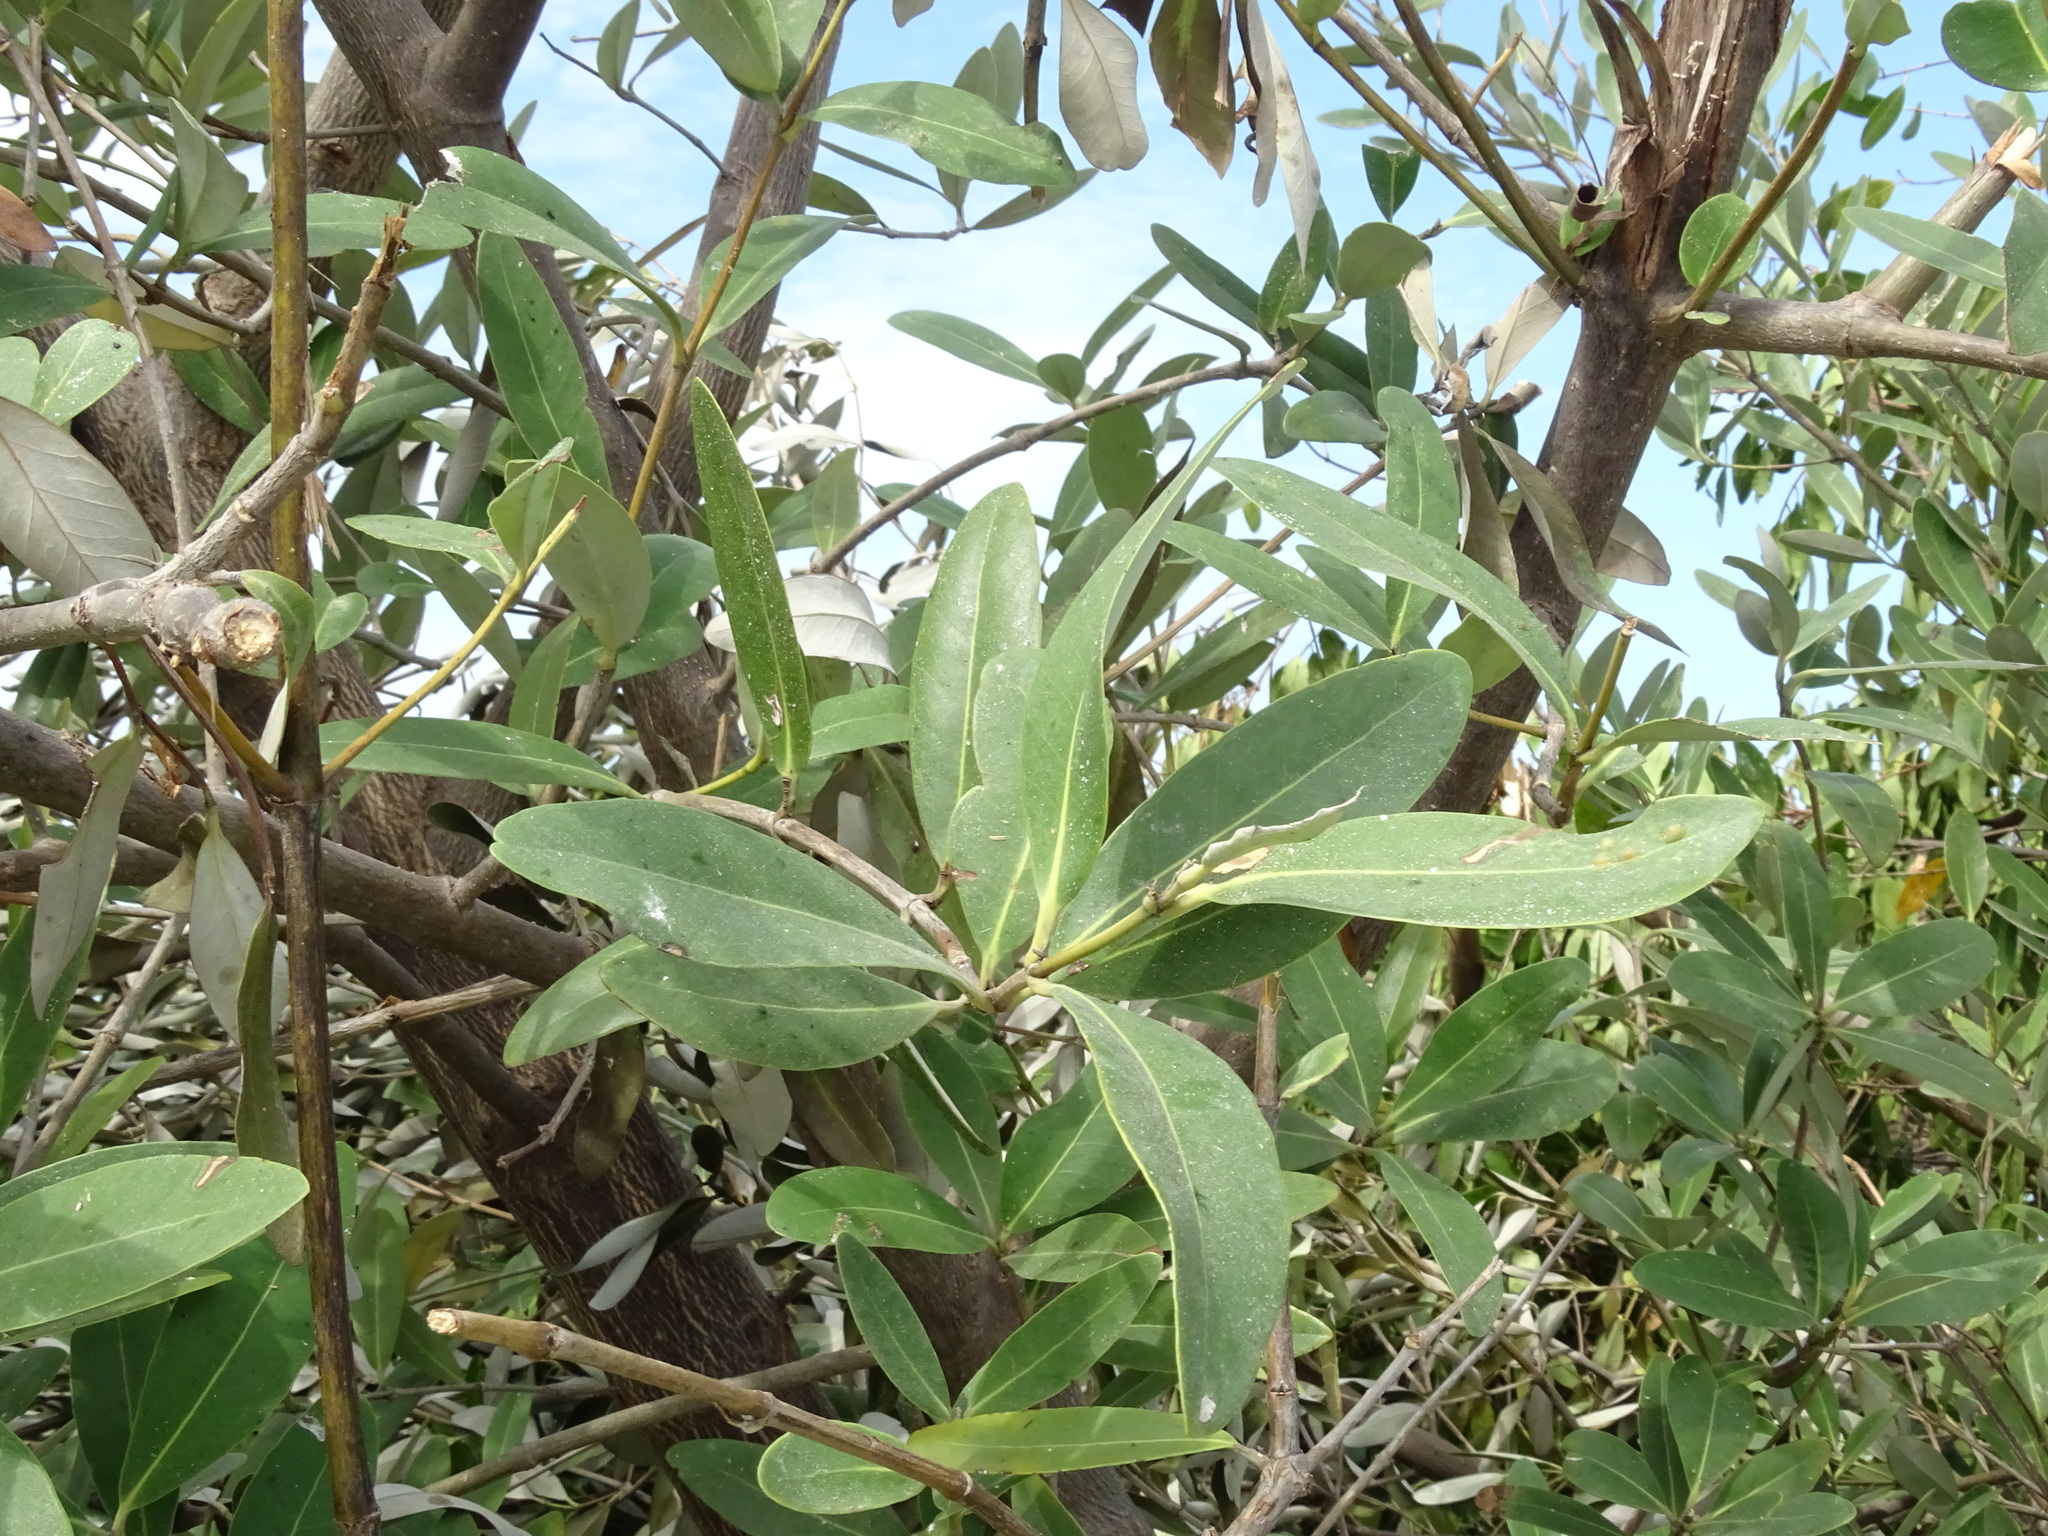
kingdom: Plantae
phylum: Tracheophyta
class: Magnoliopsida
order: Lamiales
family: Acanthaceae
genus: Avicennia
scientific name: Avicennia germinans
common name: Black mangrove
